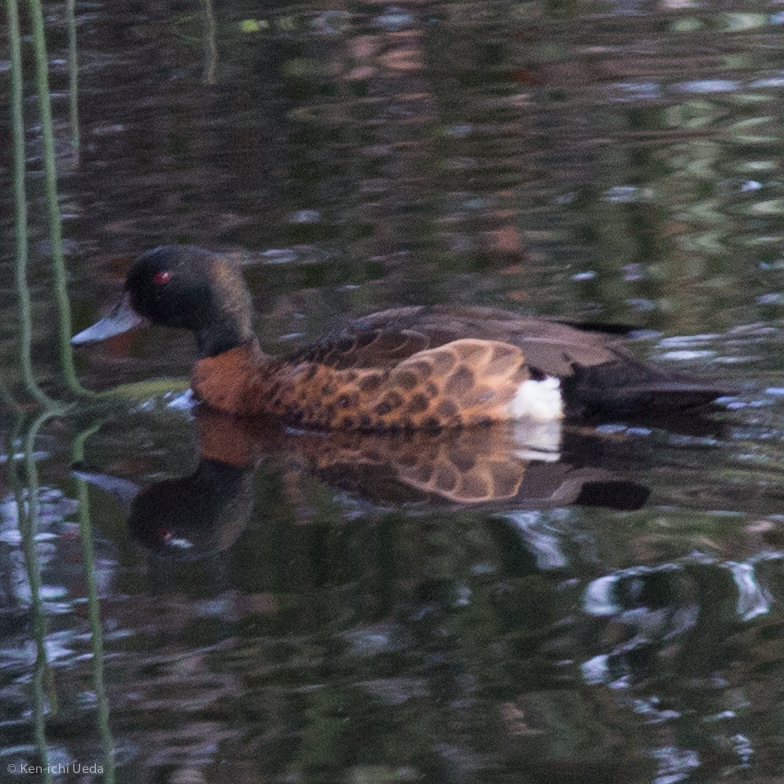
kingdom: Animalia
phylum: Chordata
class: Aves
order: Anseriformes
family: Anatidae
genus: Anas
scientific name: Anas castanea
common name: Chestnut teal
